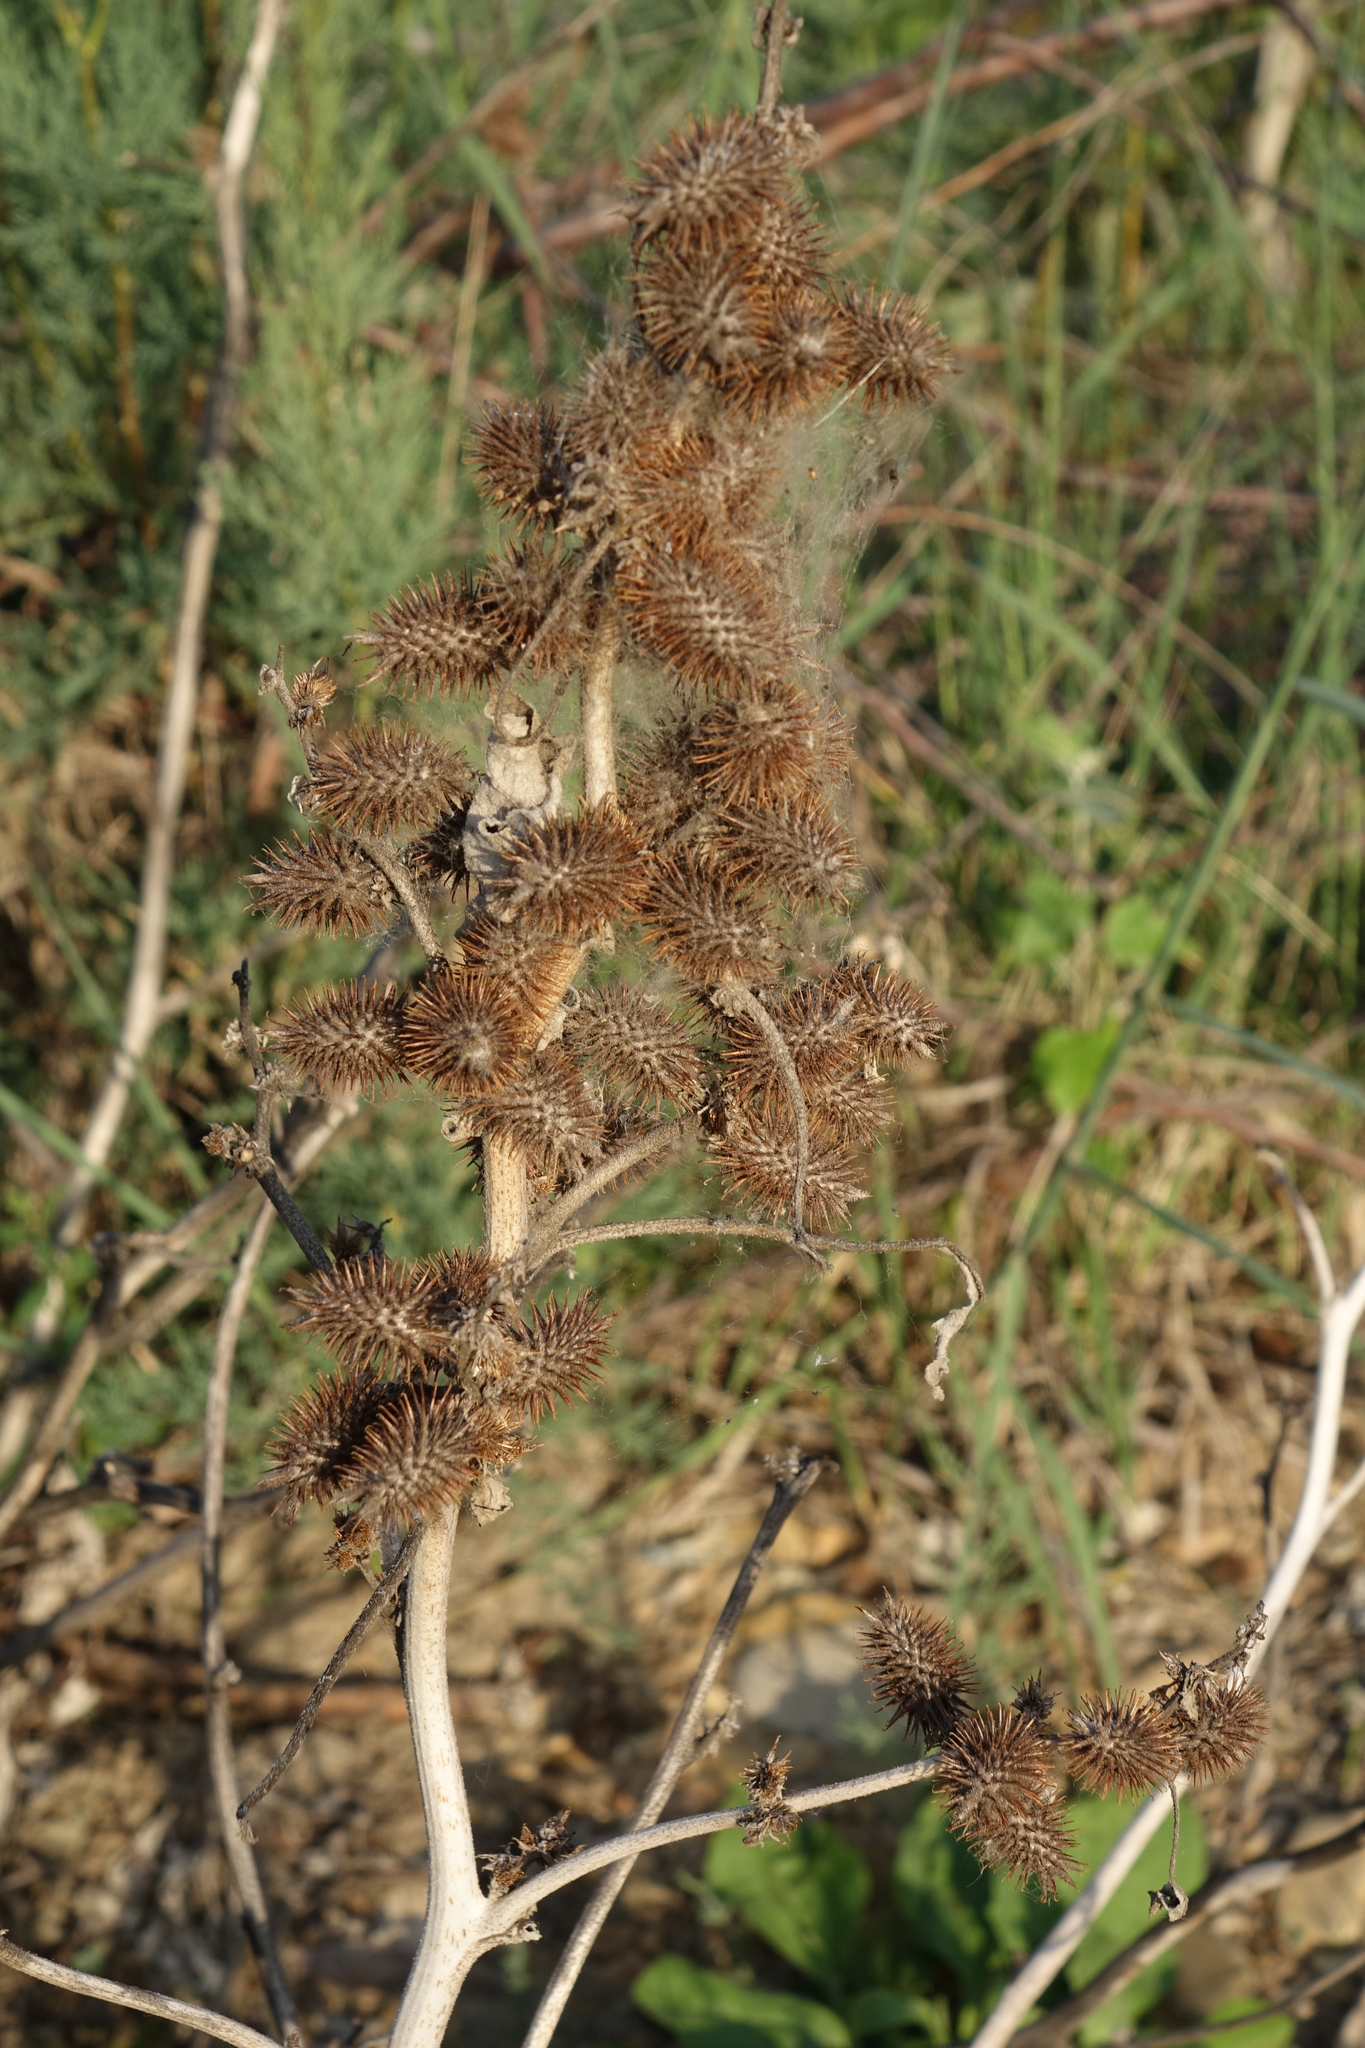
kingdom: Plantae
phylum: Tracheophyta
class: Magnoliopsida
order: Asterales
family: Asteraceae
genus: Xanthium
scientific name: Xanthium orientale
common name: Californian burr
